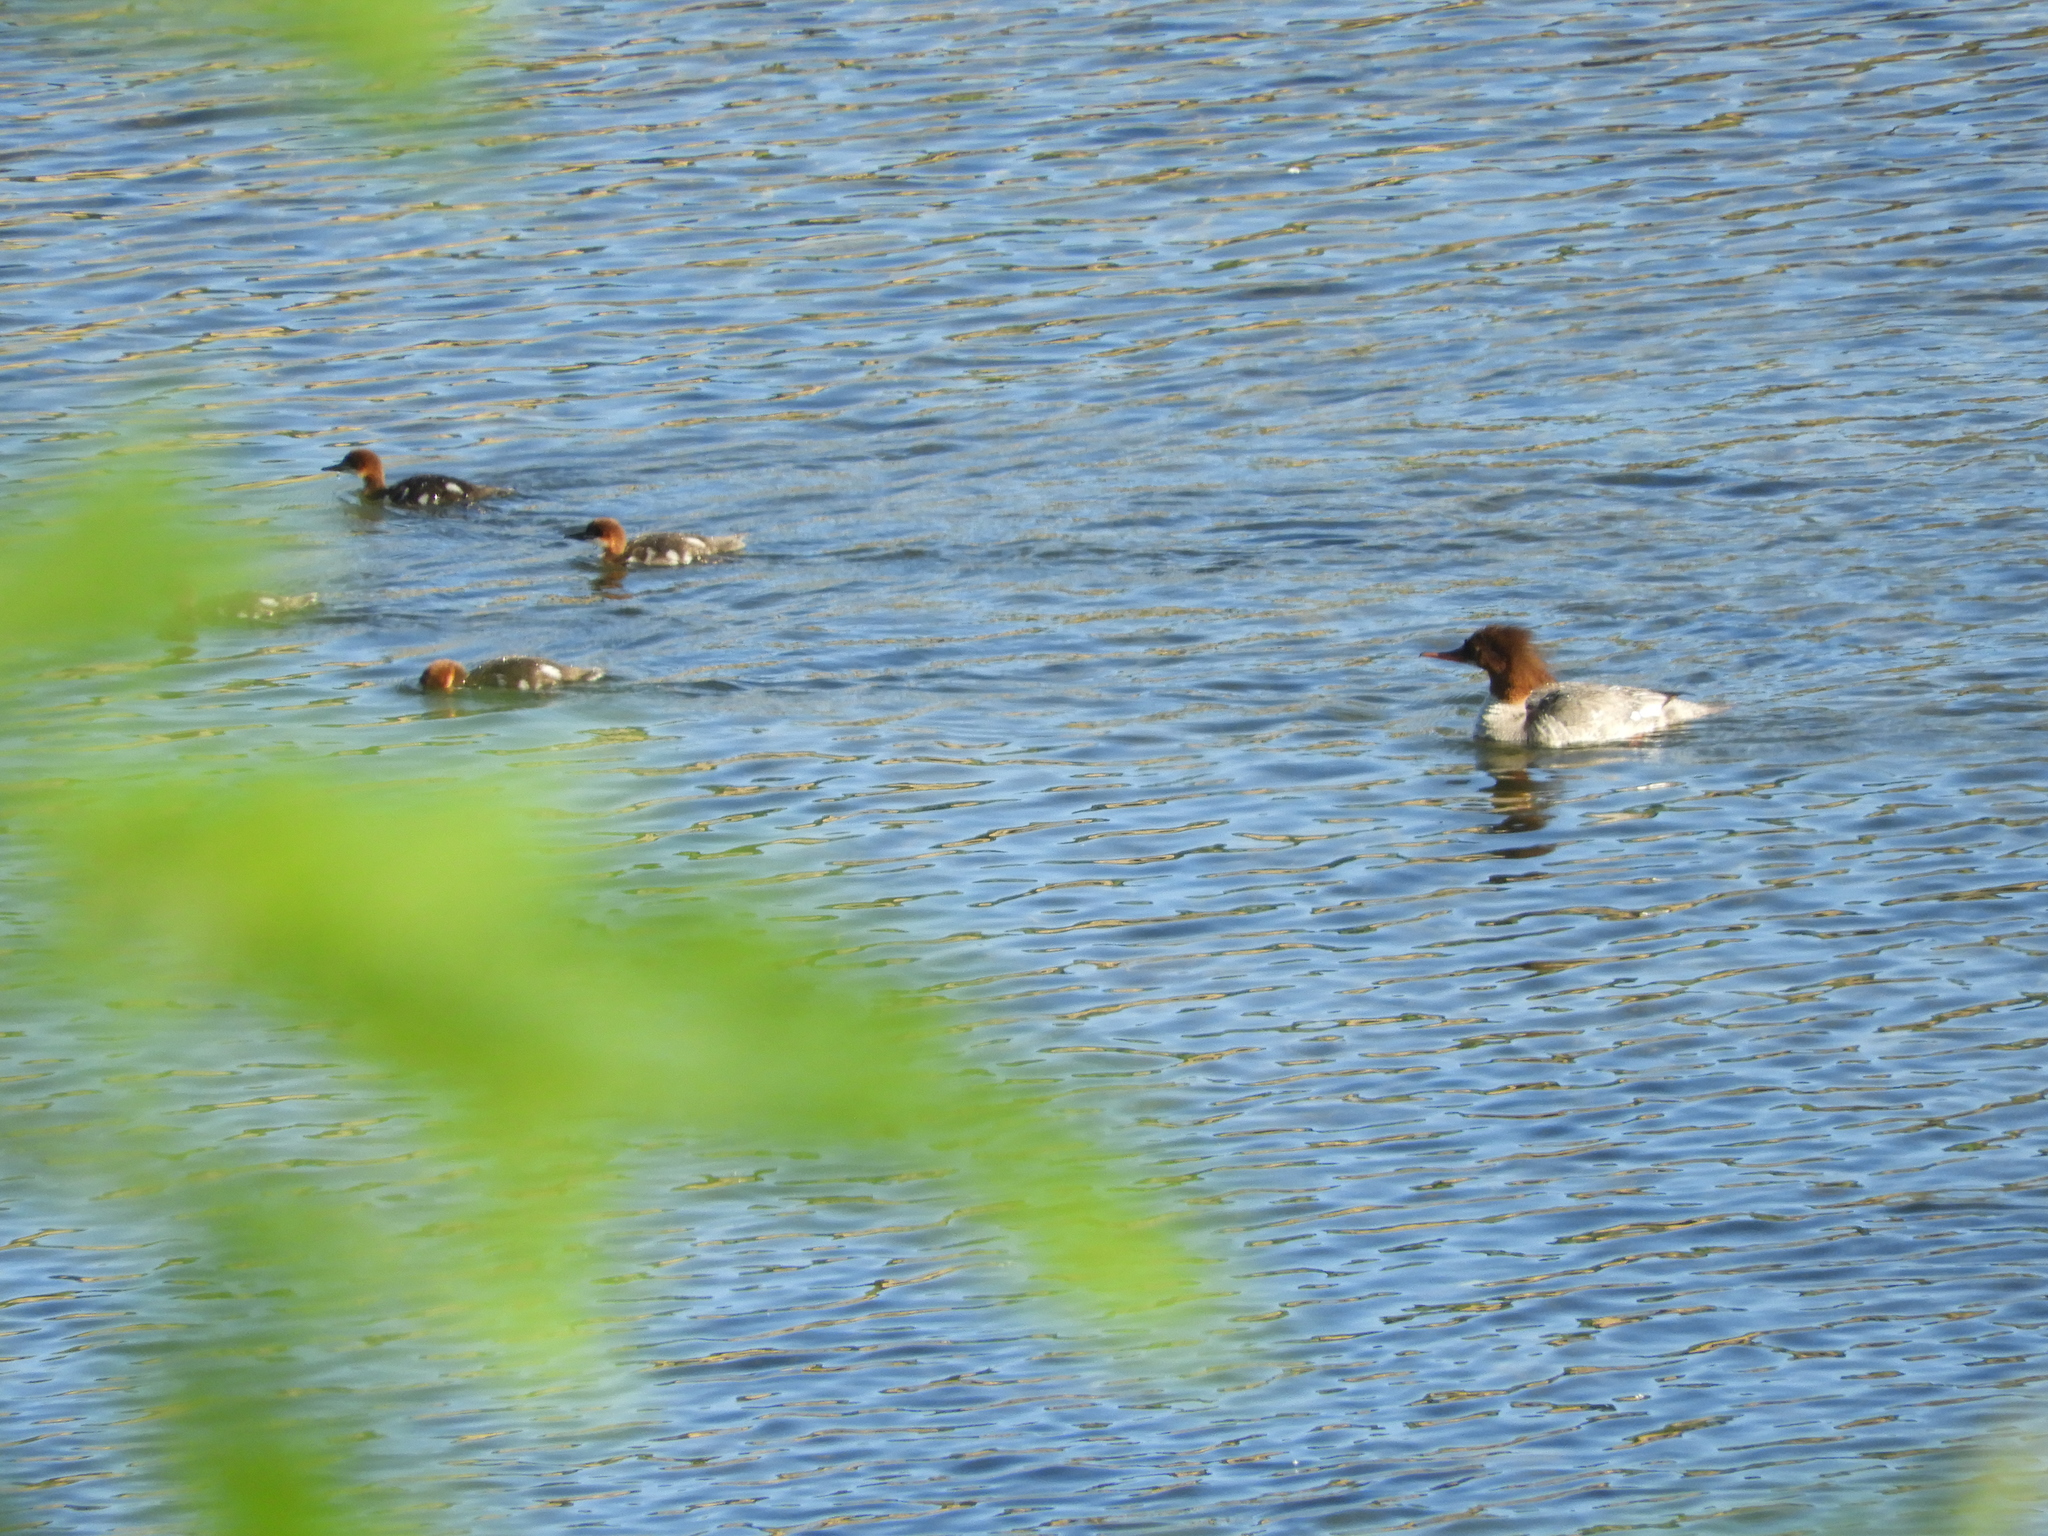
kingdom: Animalia
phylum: Chordata
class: Aves
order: Anseriformes
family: Anatidae
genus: Mergus
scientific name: Mergus merganser
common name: Common merganser
